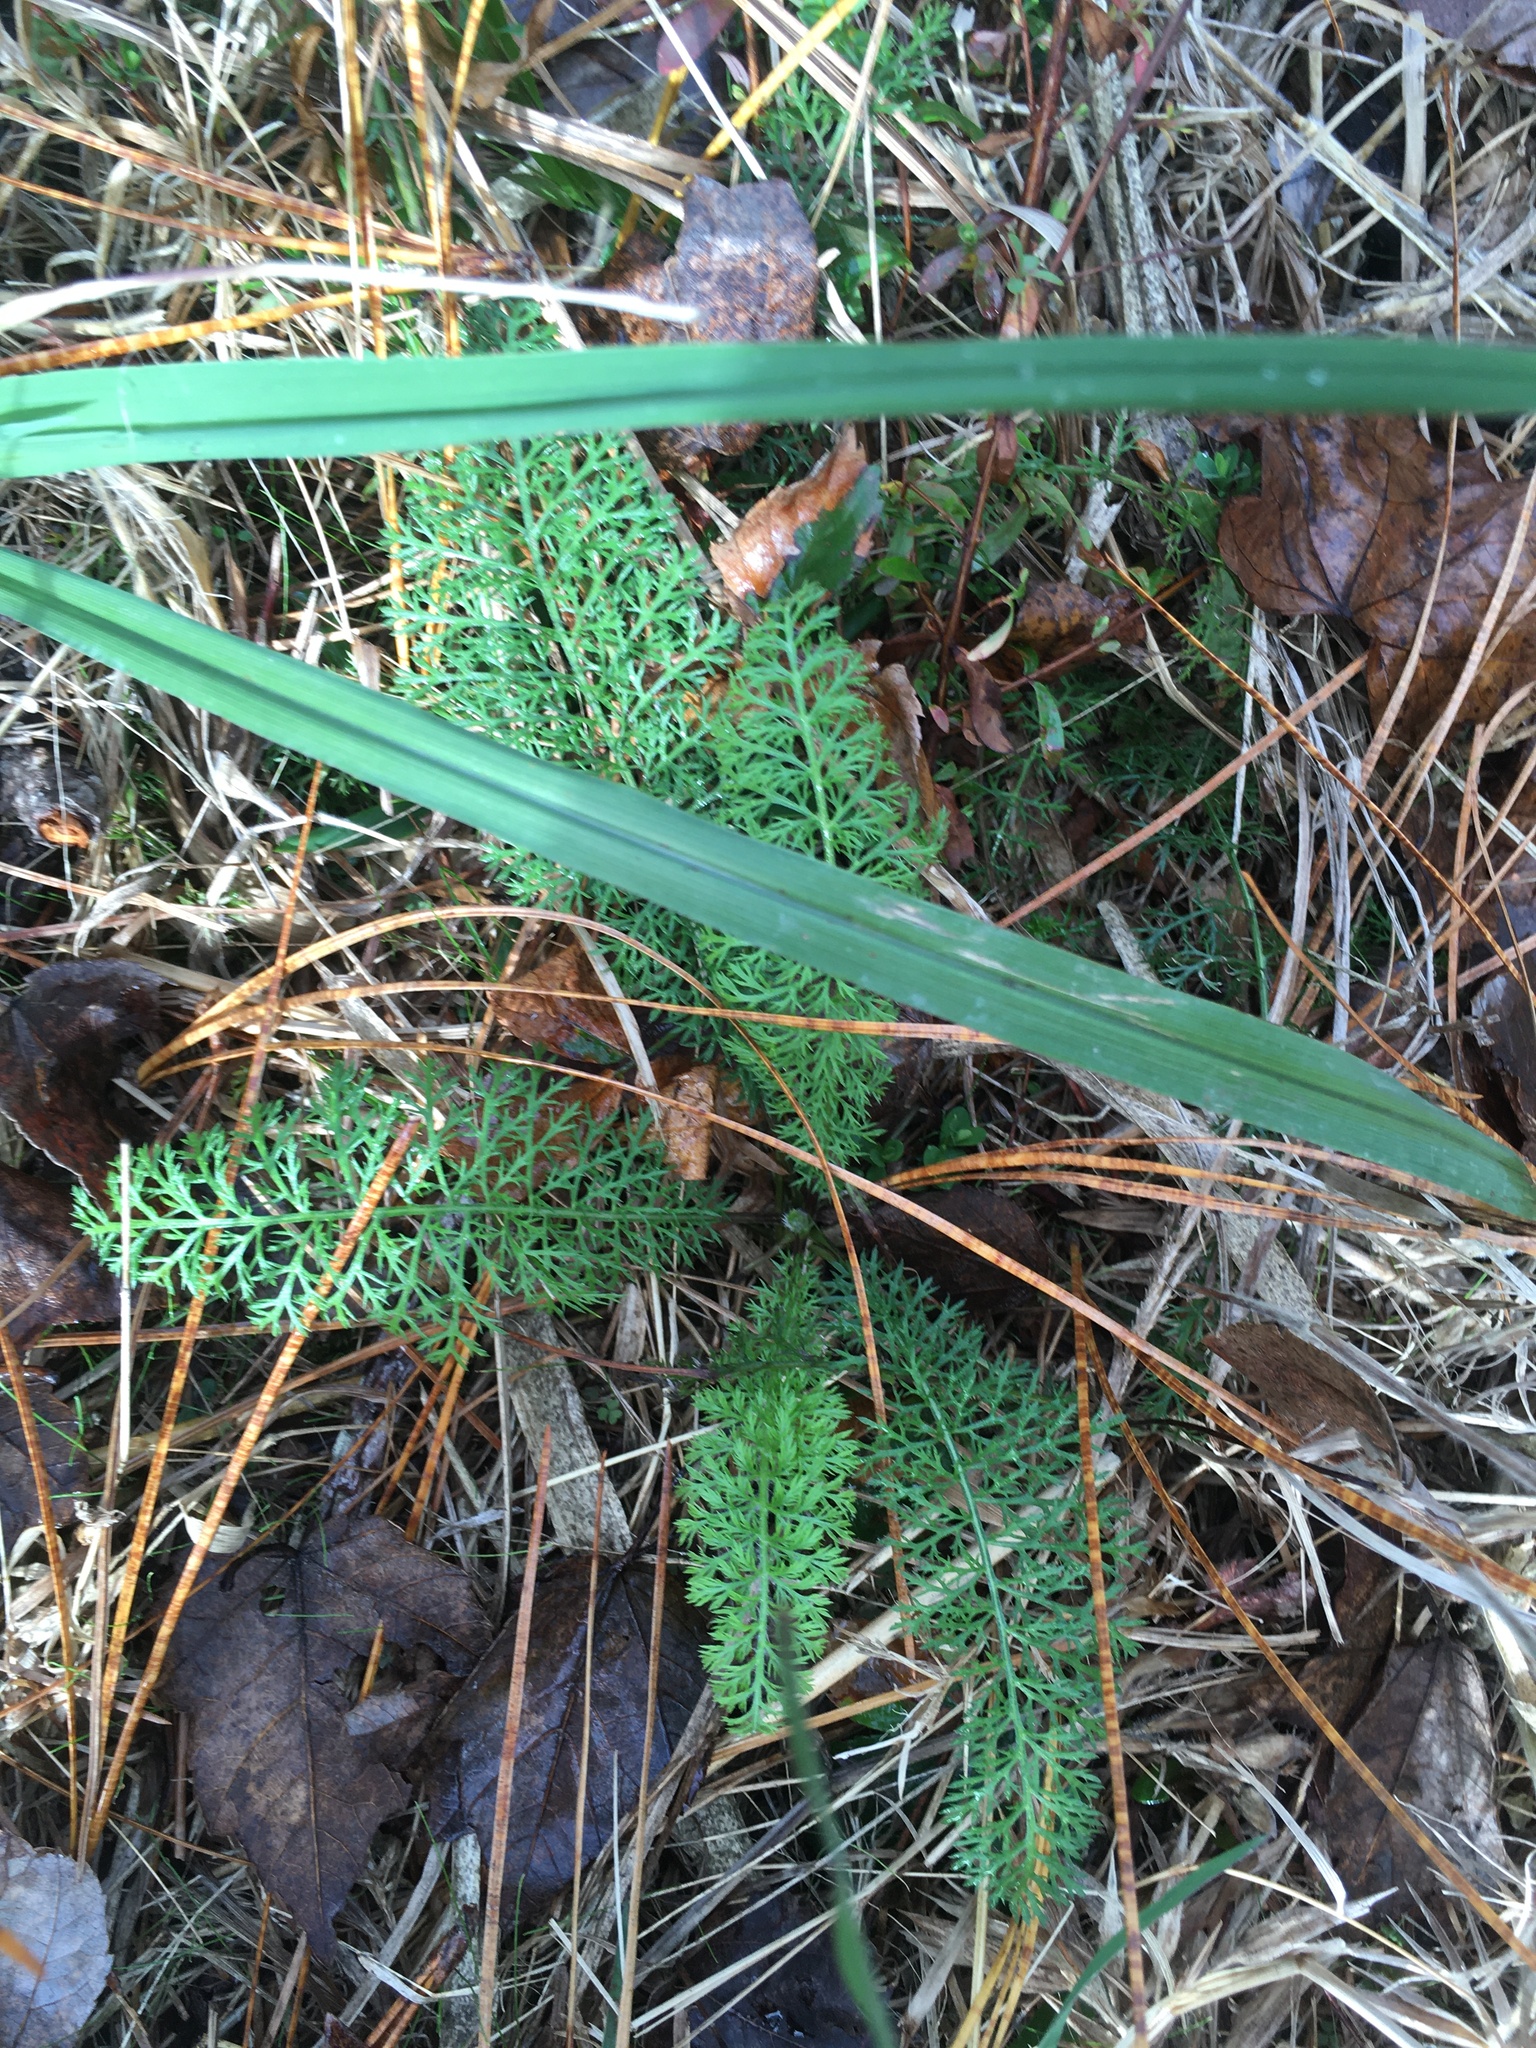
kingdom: Plantae
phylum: Tracheophyta
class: Magnoliopsida
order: Asterales
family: Asteraceae
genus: Achillea
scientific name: Achillea millefolium
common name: Yarrow
